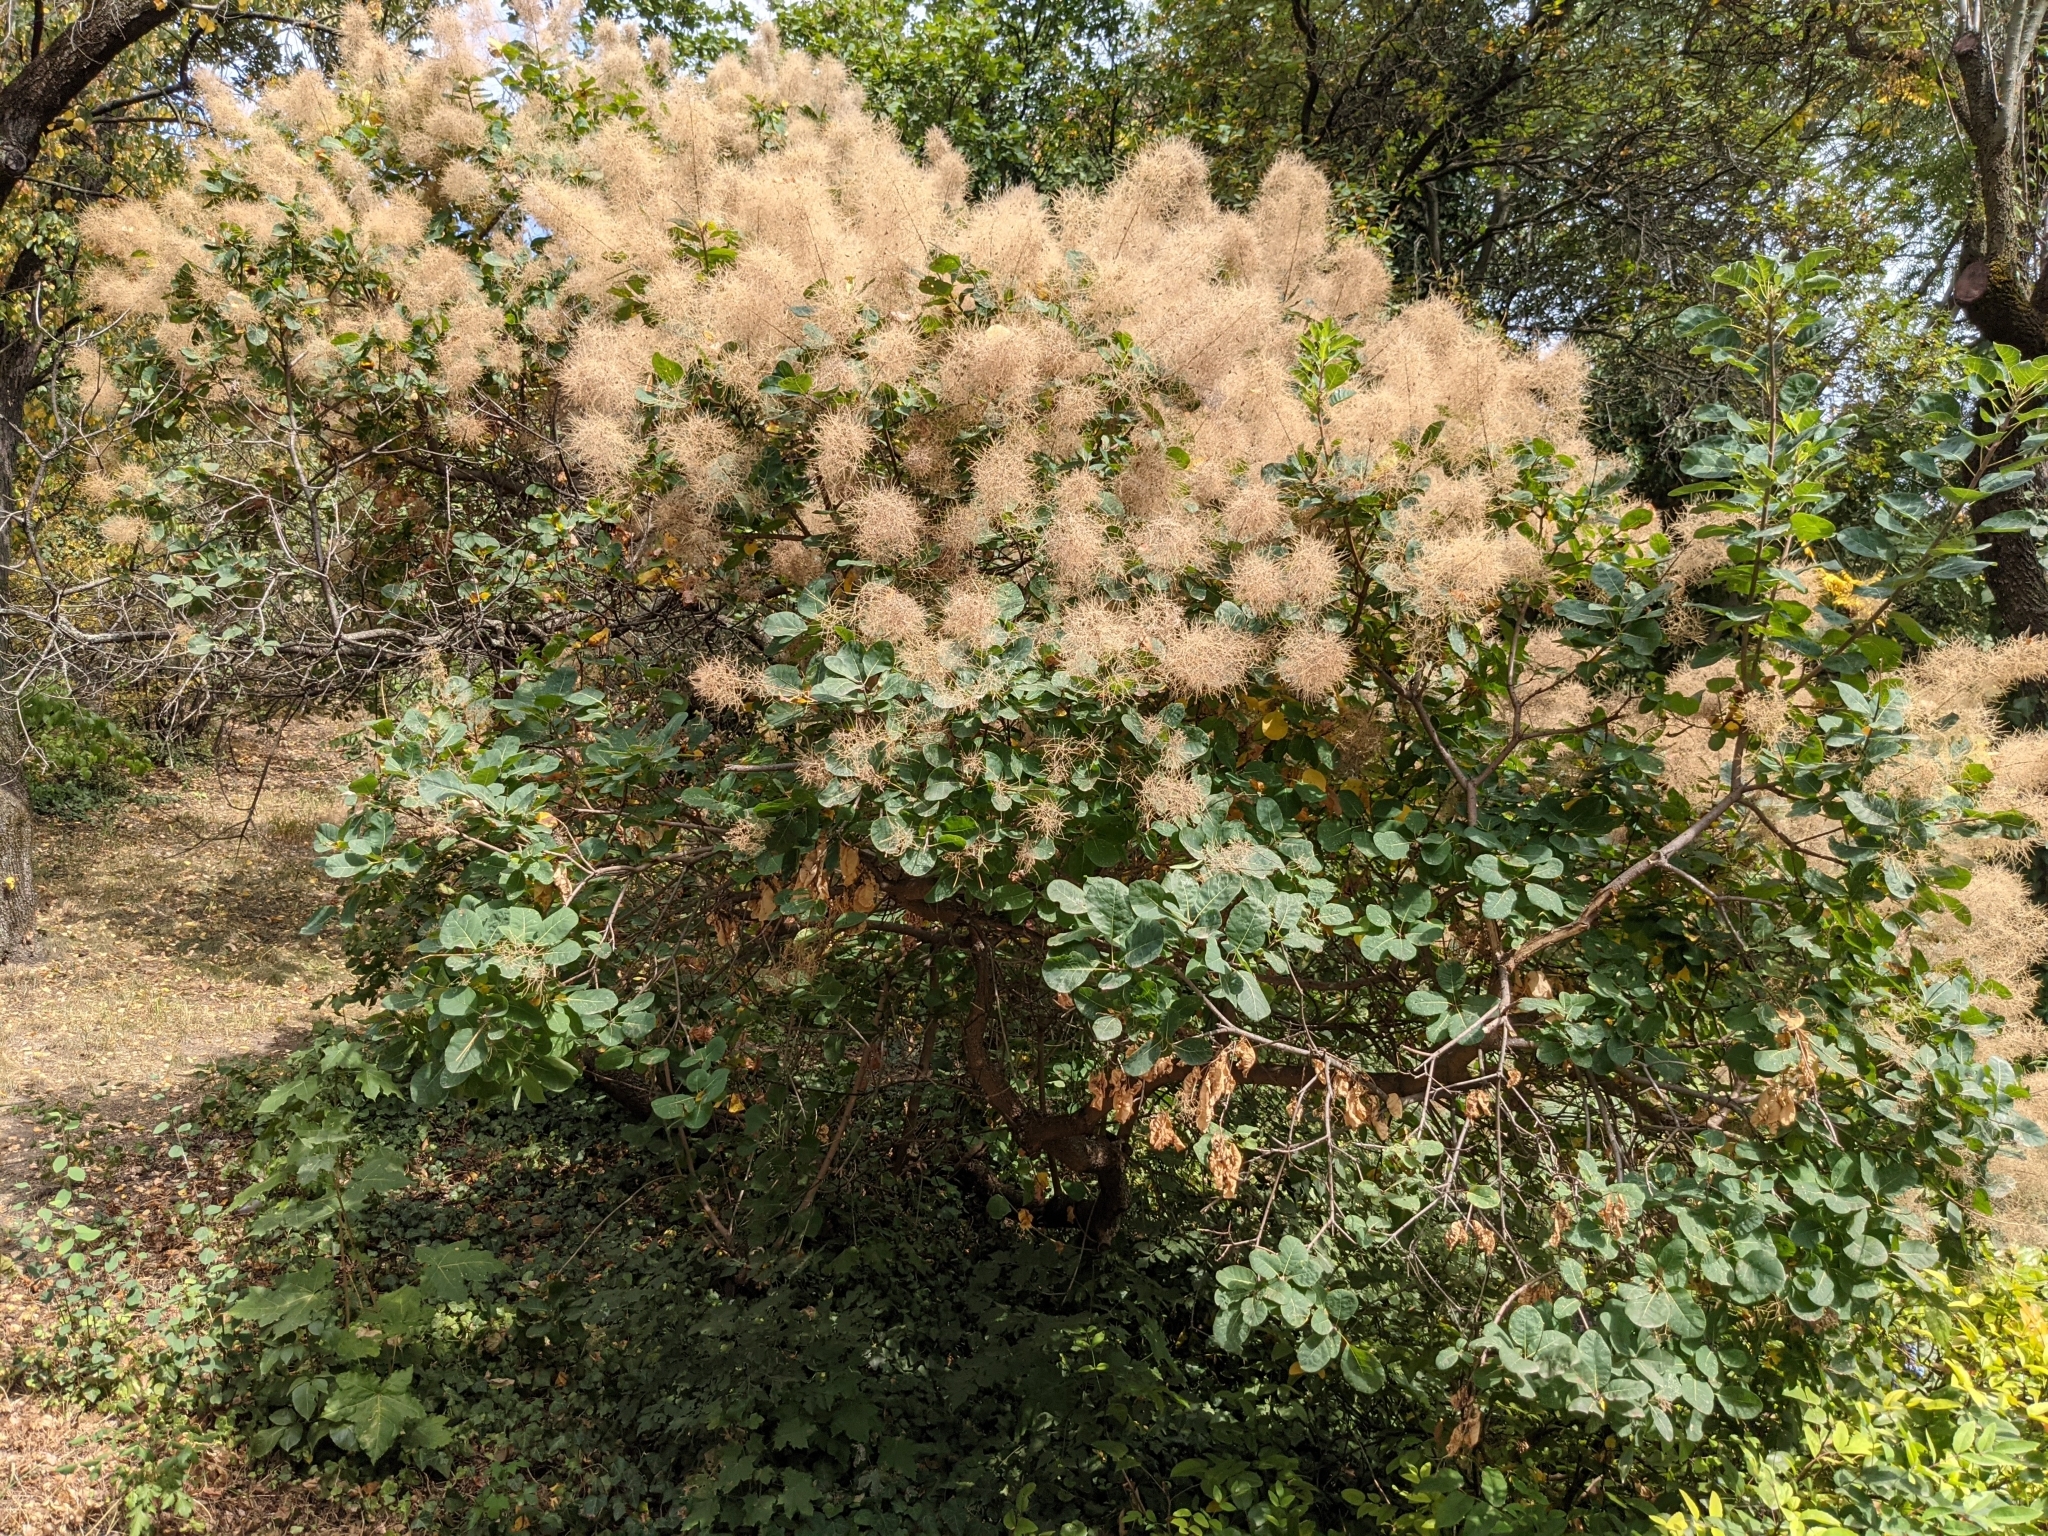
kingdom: Plantae
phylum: Tracheophyta
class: Magnoliopsida
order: Sapindales
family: Anacardiaceae
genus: Cotinus
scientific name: Cotinus coggygria
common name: Smoke-tree
